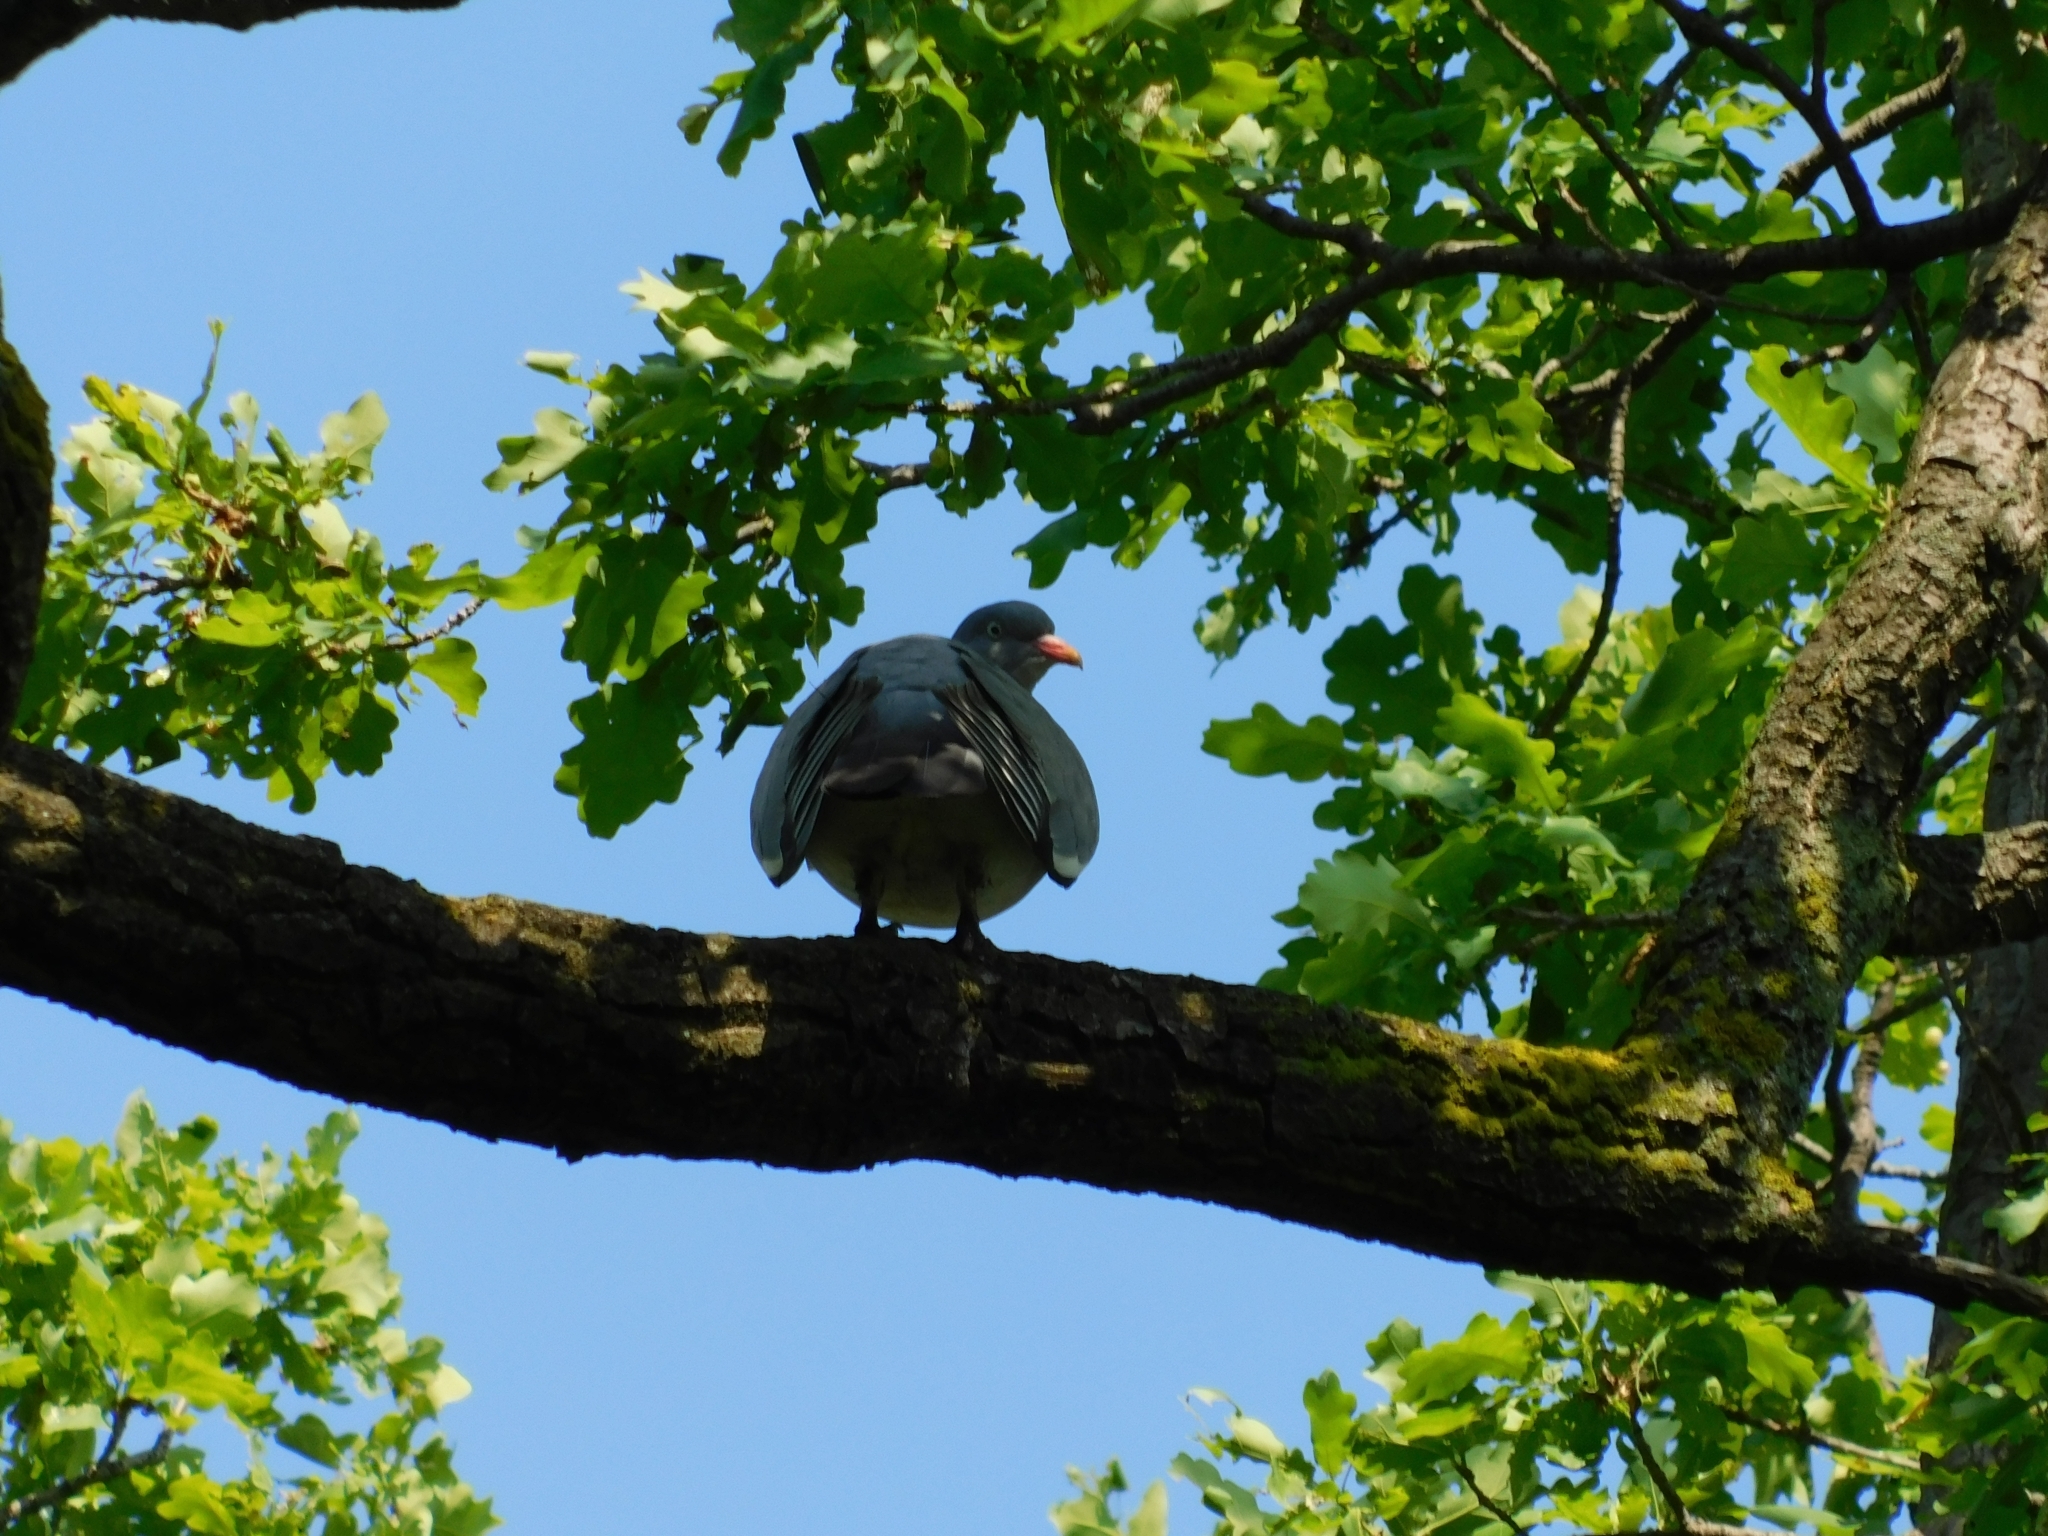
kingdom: Animalia
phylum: Chordata
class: Aves
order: Columbiformes
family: Columbidae
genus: Columba
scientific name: Columba palumbus
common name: Common wood pigeon
